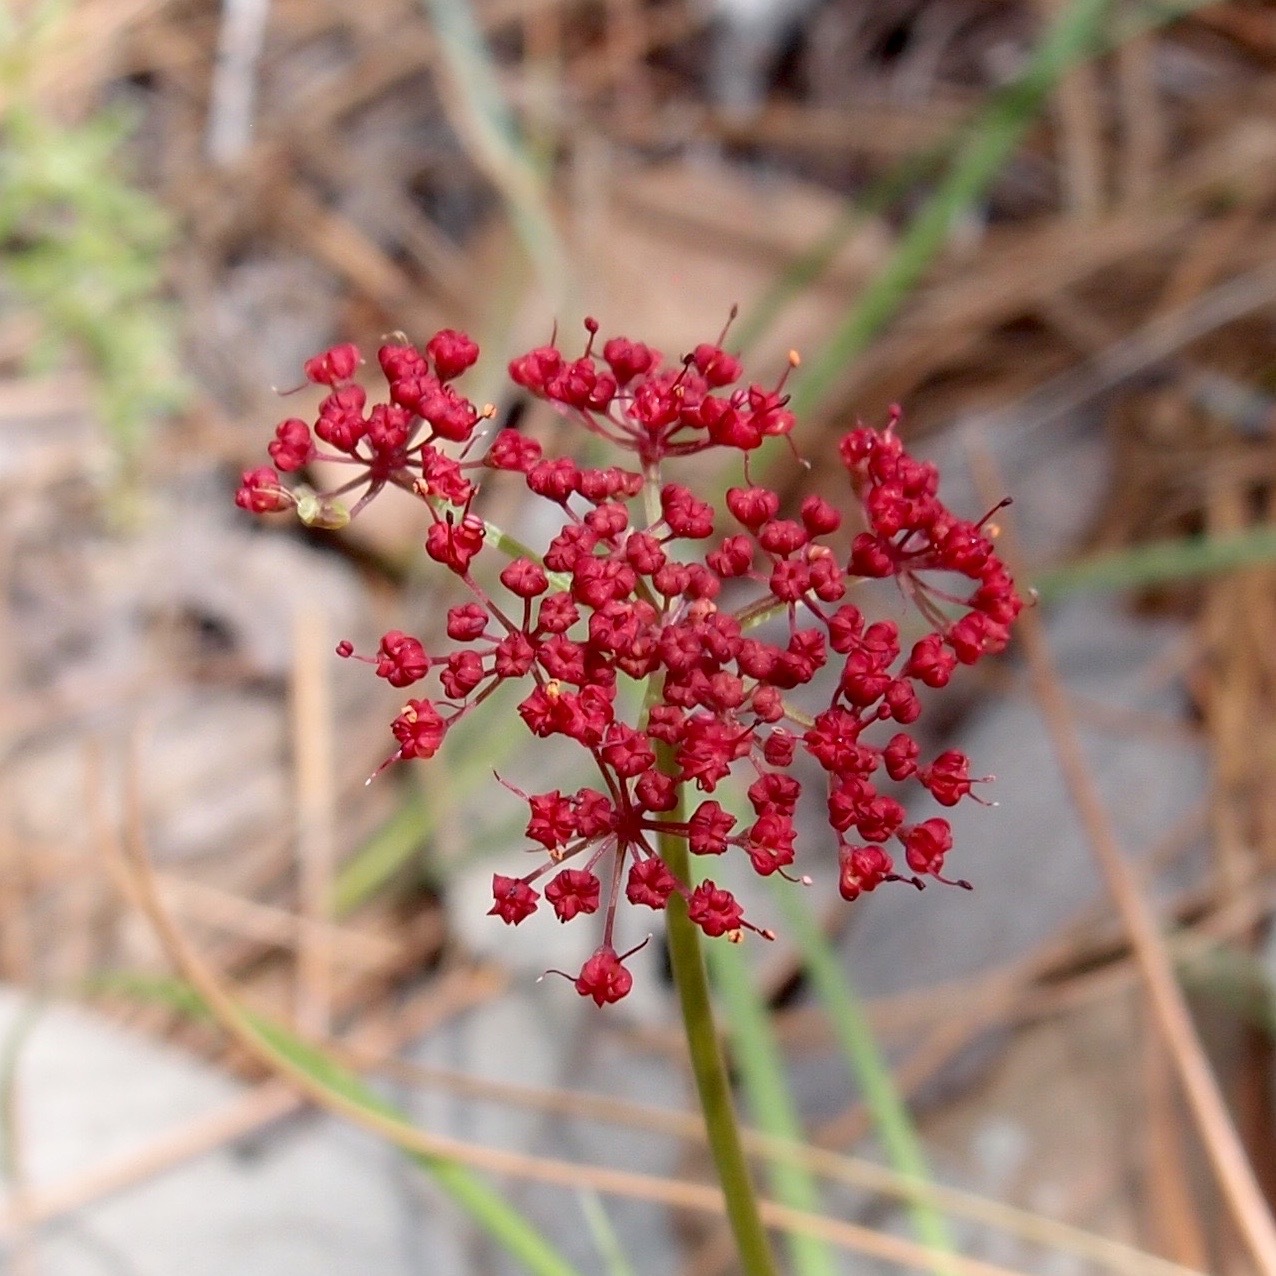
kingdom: Plantae
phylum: Tracheophyta
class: Magnoliopsida
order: Apiales
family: Apiaceae
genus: Cymopterus
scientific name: Cymopterus lemmonii
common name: Lemmon's spring-parsley
